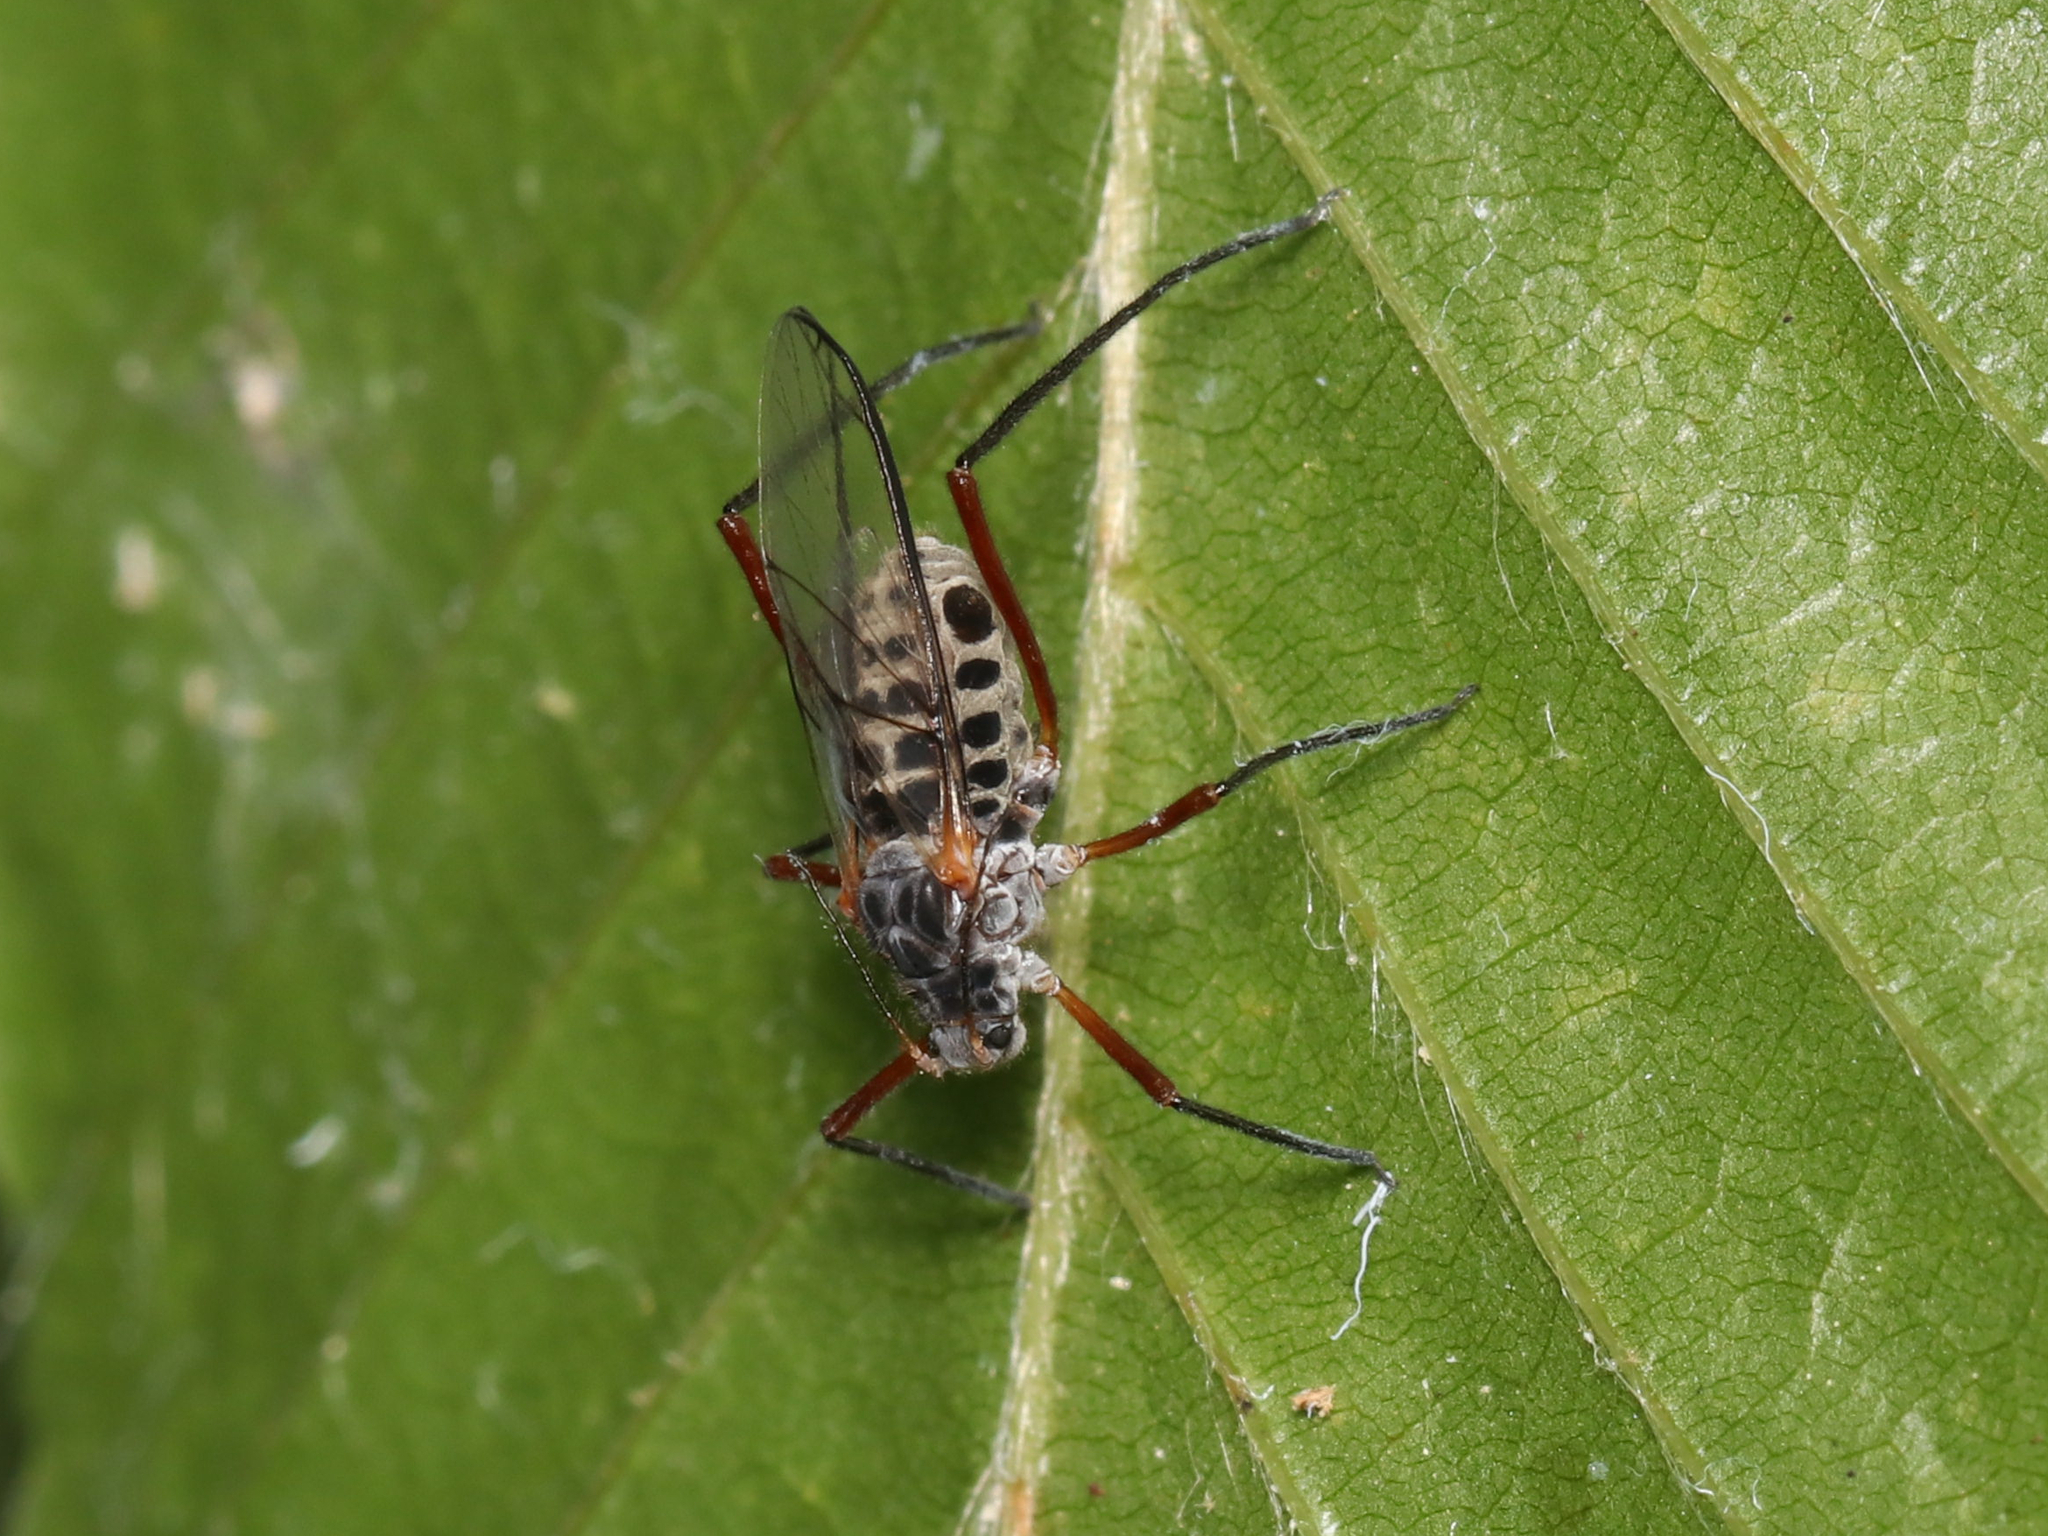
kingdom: Animalia
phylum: Arthropoda
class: Insecta
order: Hemiptera
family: Aphididae
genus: Longistigma
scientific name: Longistigma caryae
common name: Giant bark aphid
